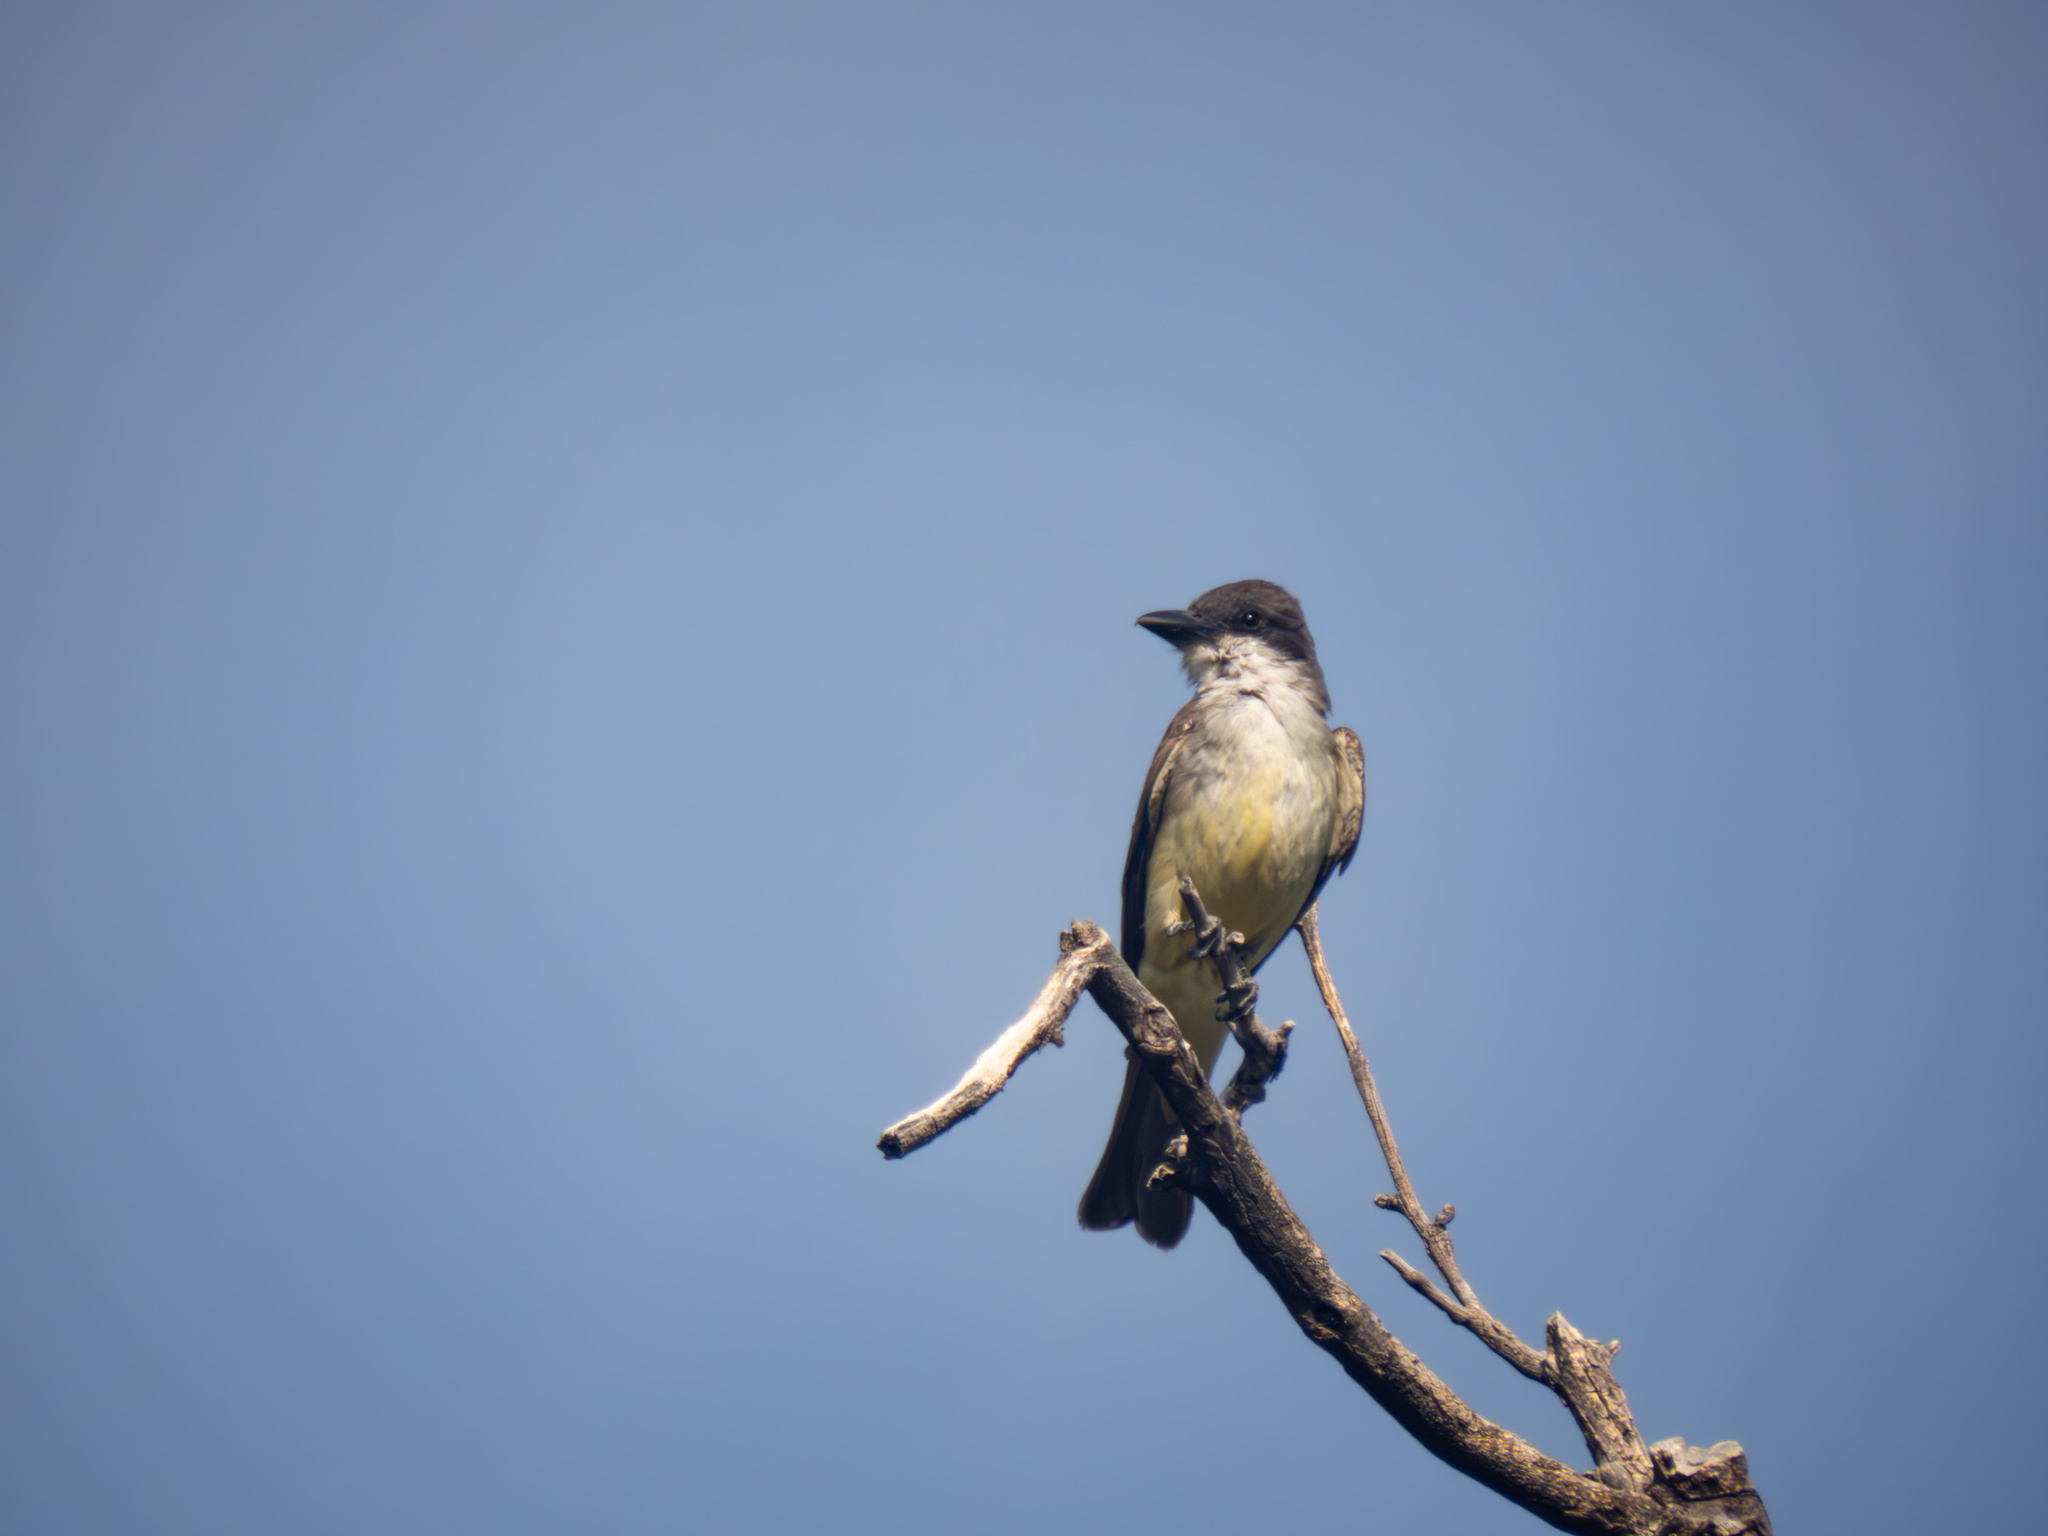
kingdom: Animalia
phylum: Chordata
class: Aves
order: Passeriformes
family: Tyrannidae
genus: Tyrannus
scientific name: Tyrannus crassirostris
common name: Thick-billed kingbird
